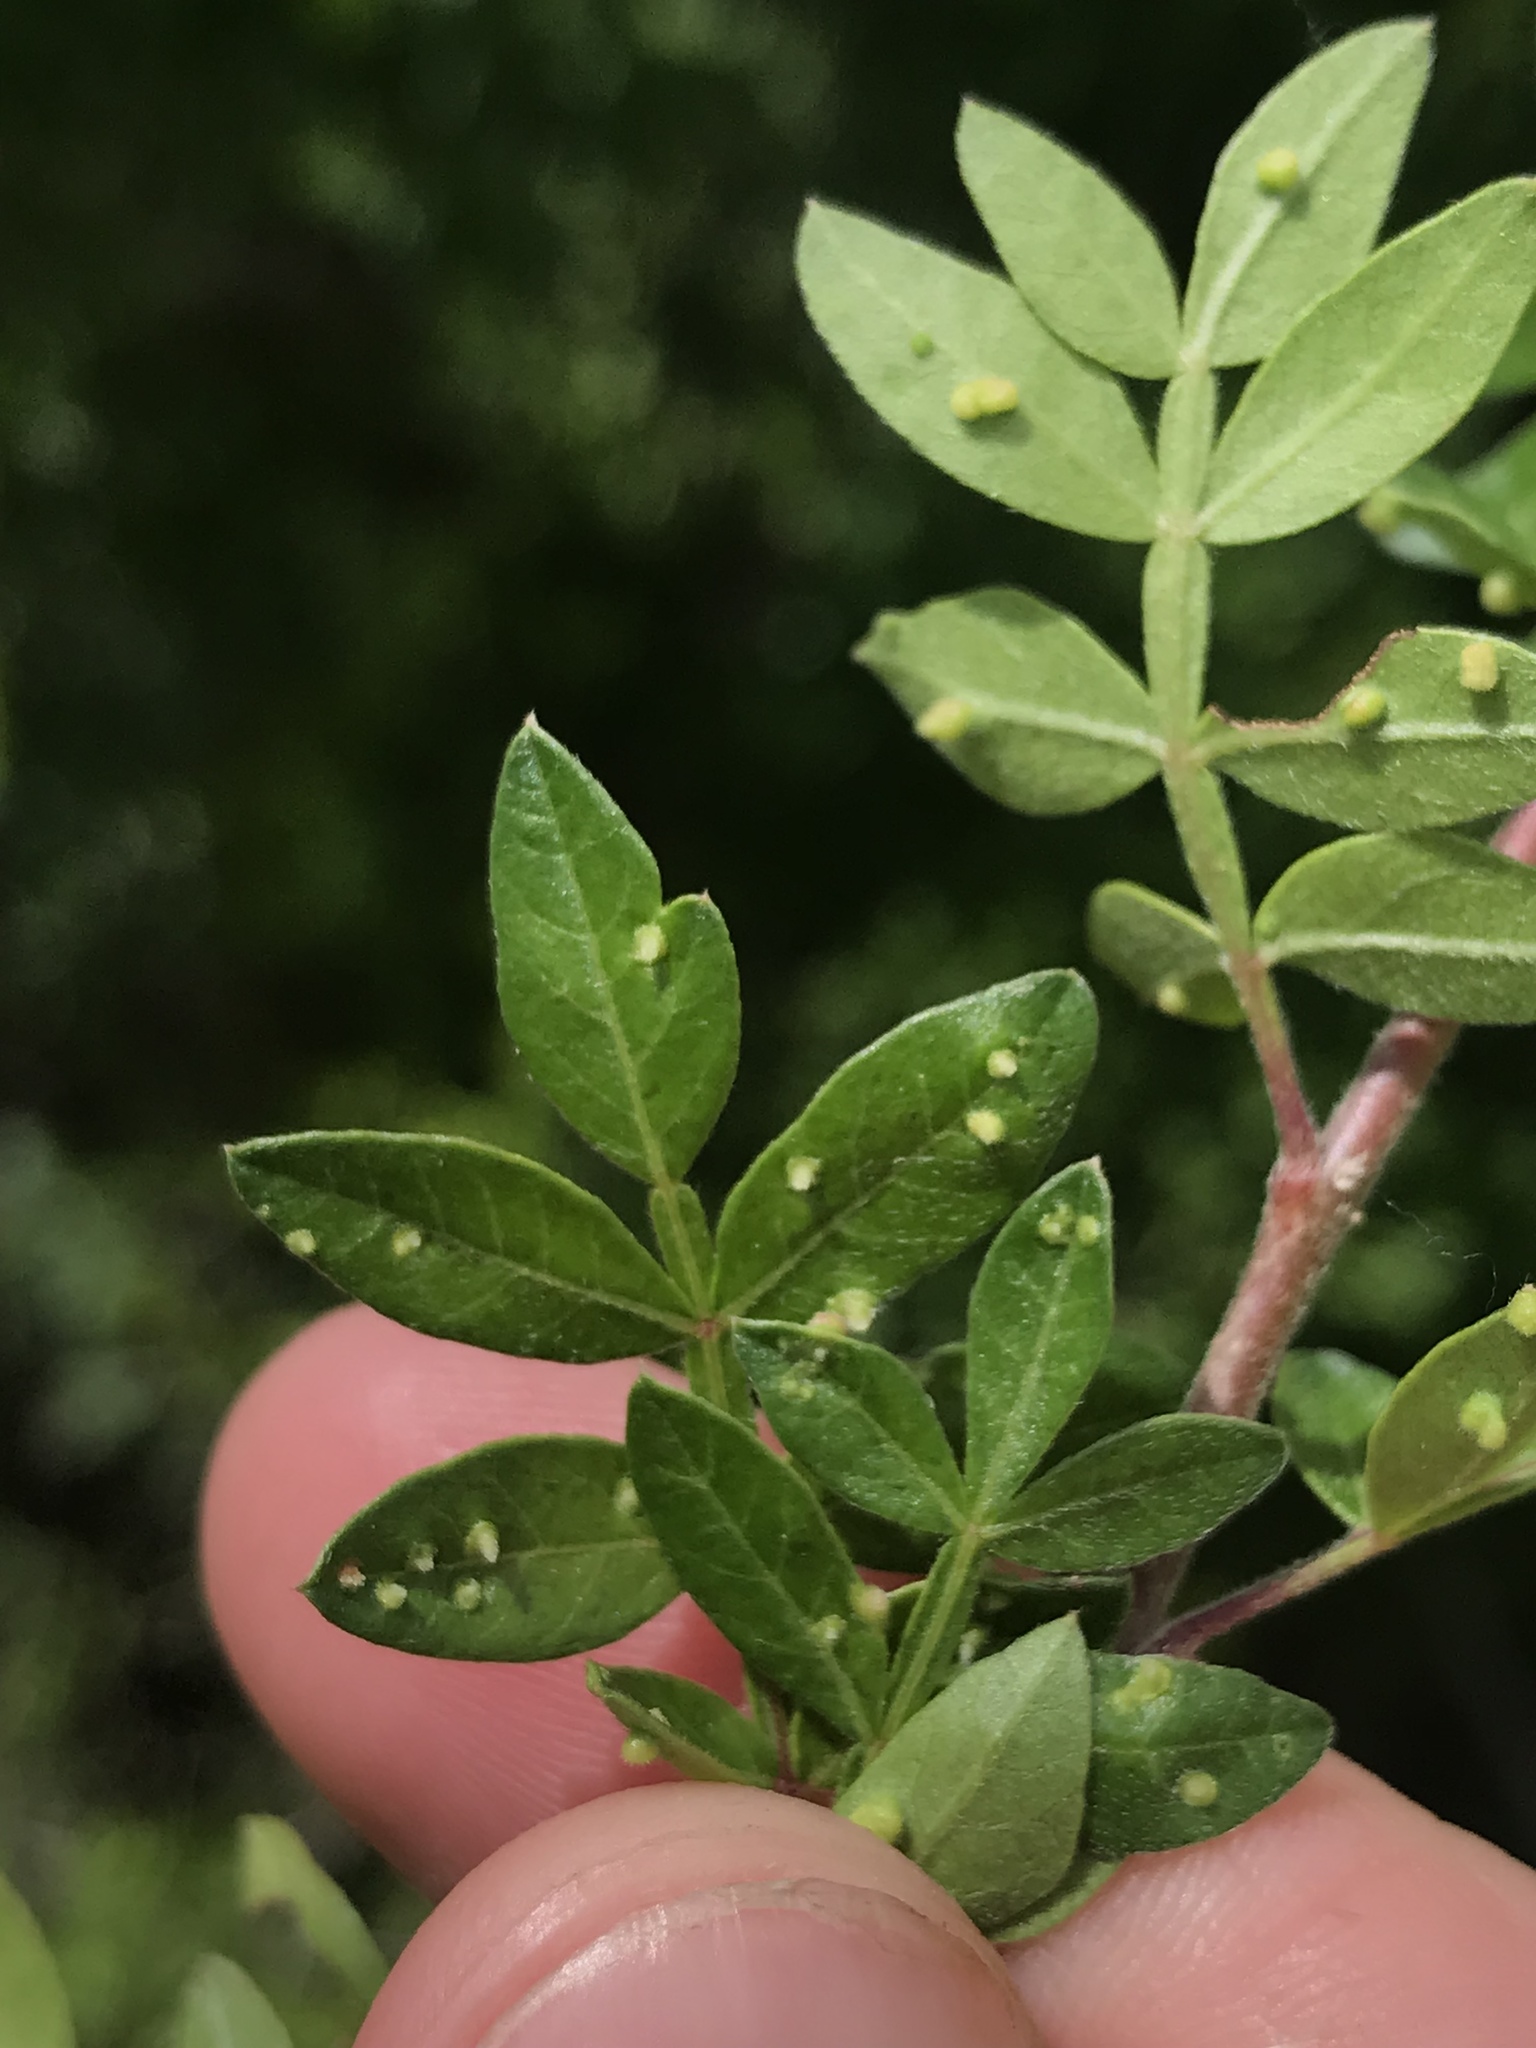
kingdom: Animalia
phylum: Arthropoda
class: Arachnida
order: Trombidiformes
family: Eriophyidae
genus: Aculops
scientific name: Aculops
